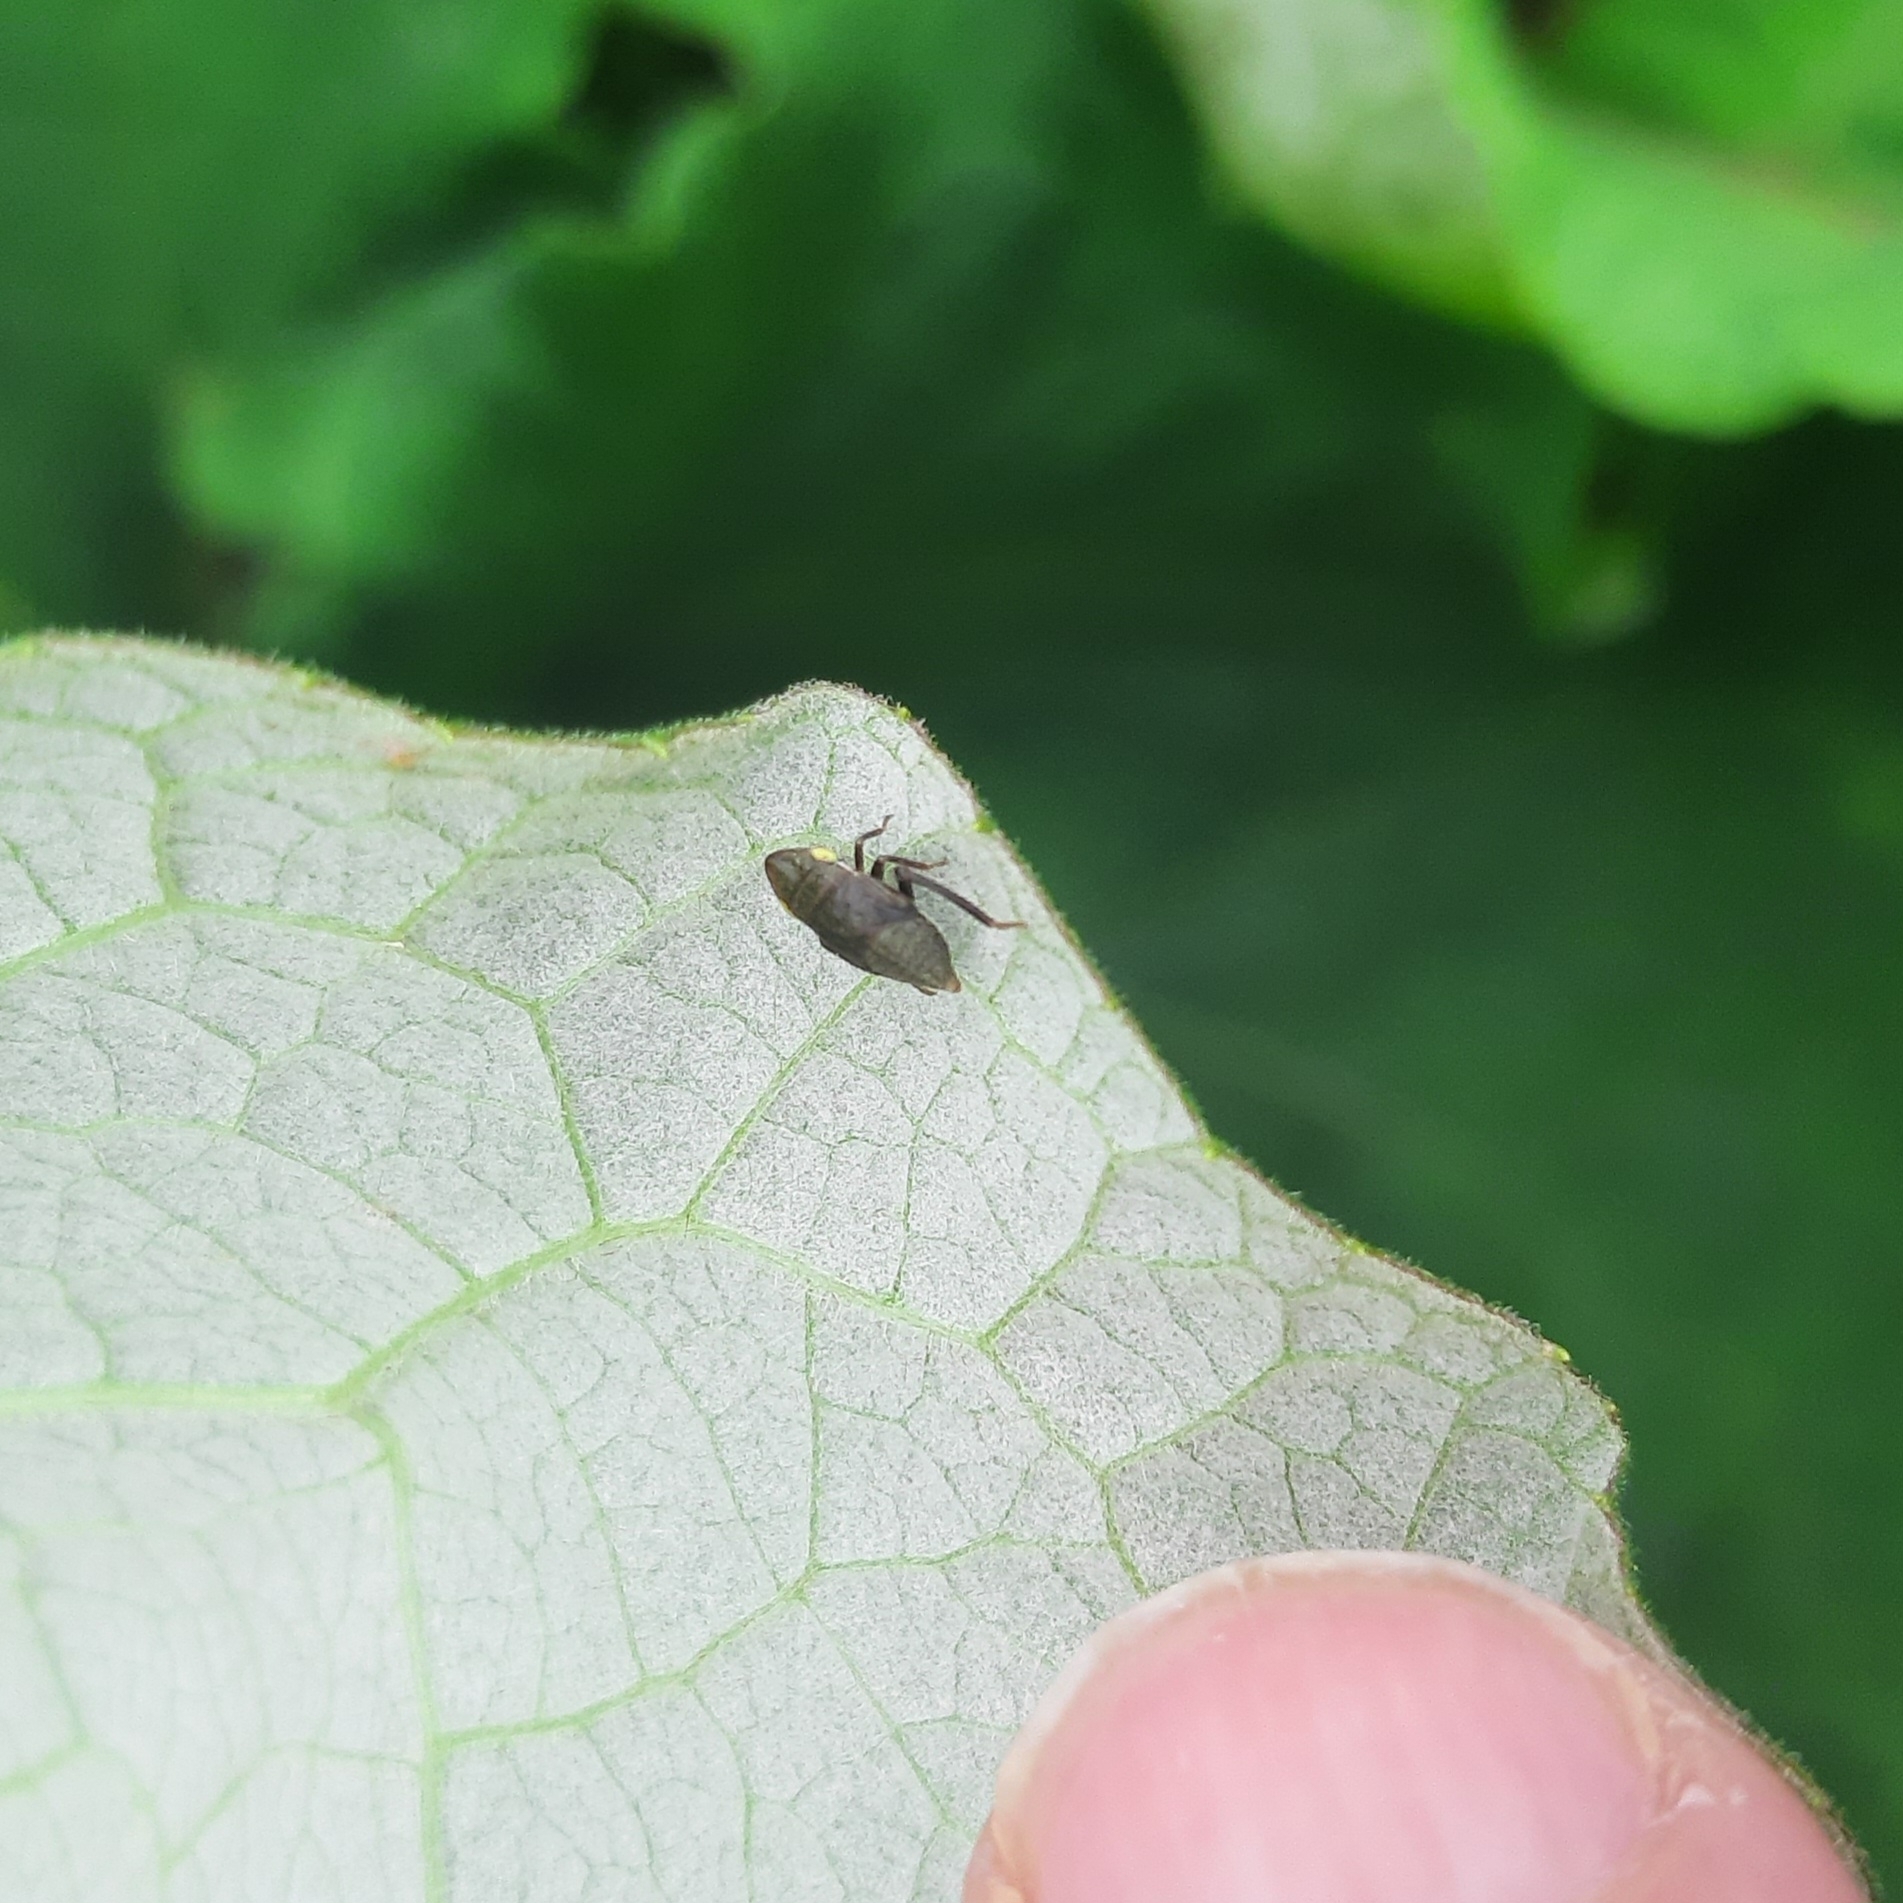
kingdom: Animalia
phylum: Arthropoda
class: Insecta
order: Hemiptera
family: Cicadellidae
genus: Aphrodes
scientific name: Aphrodes
